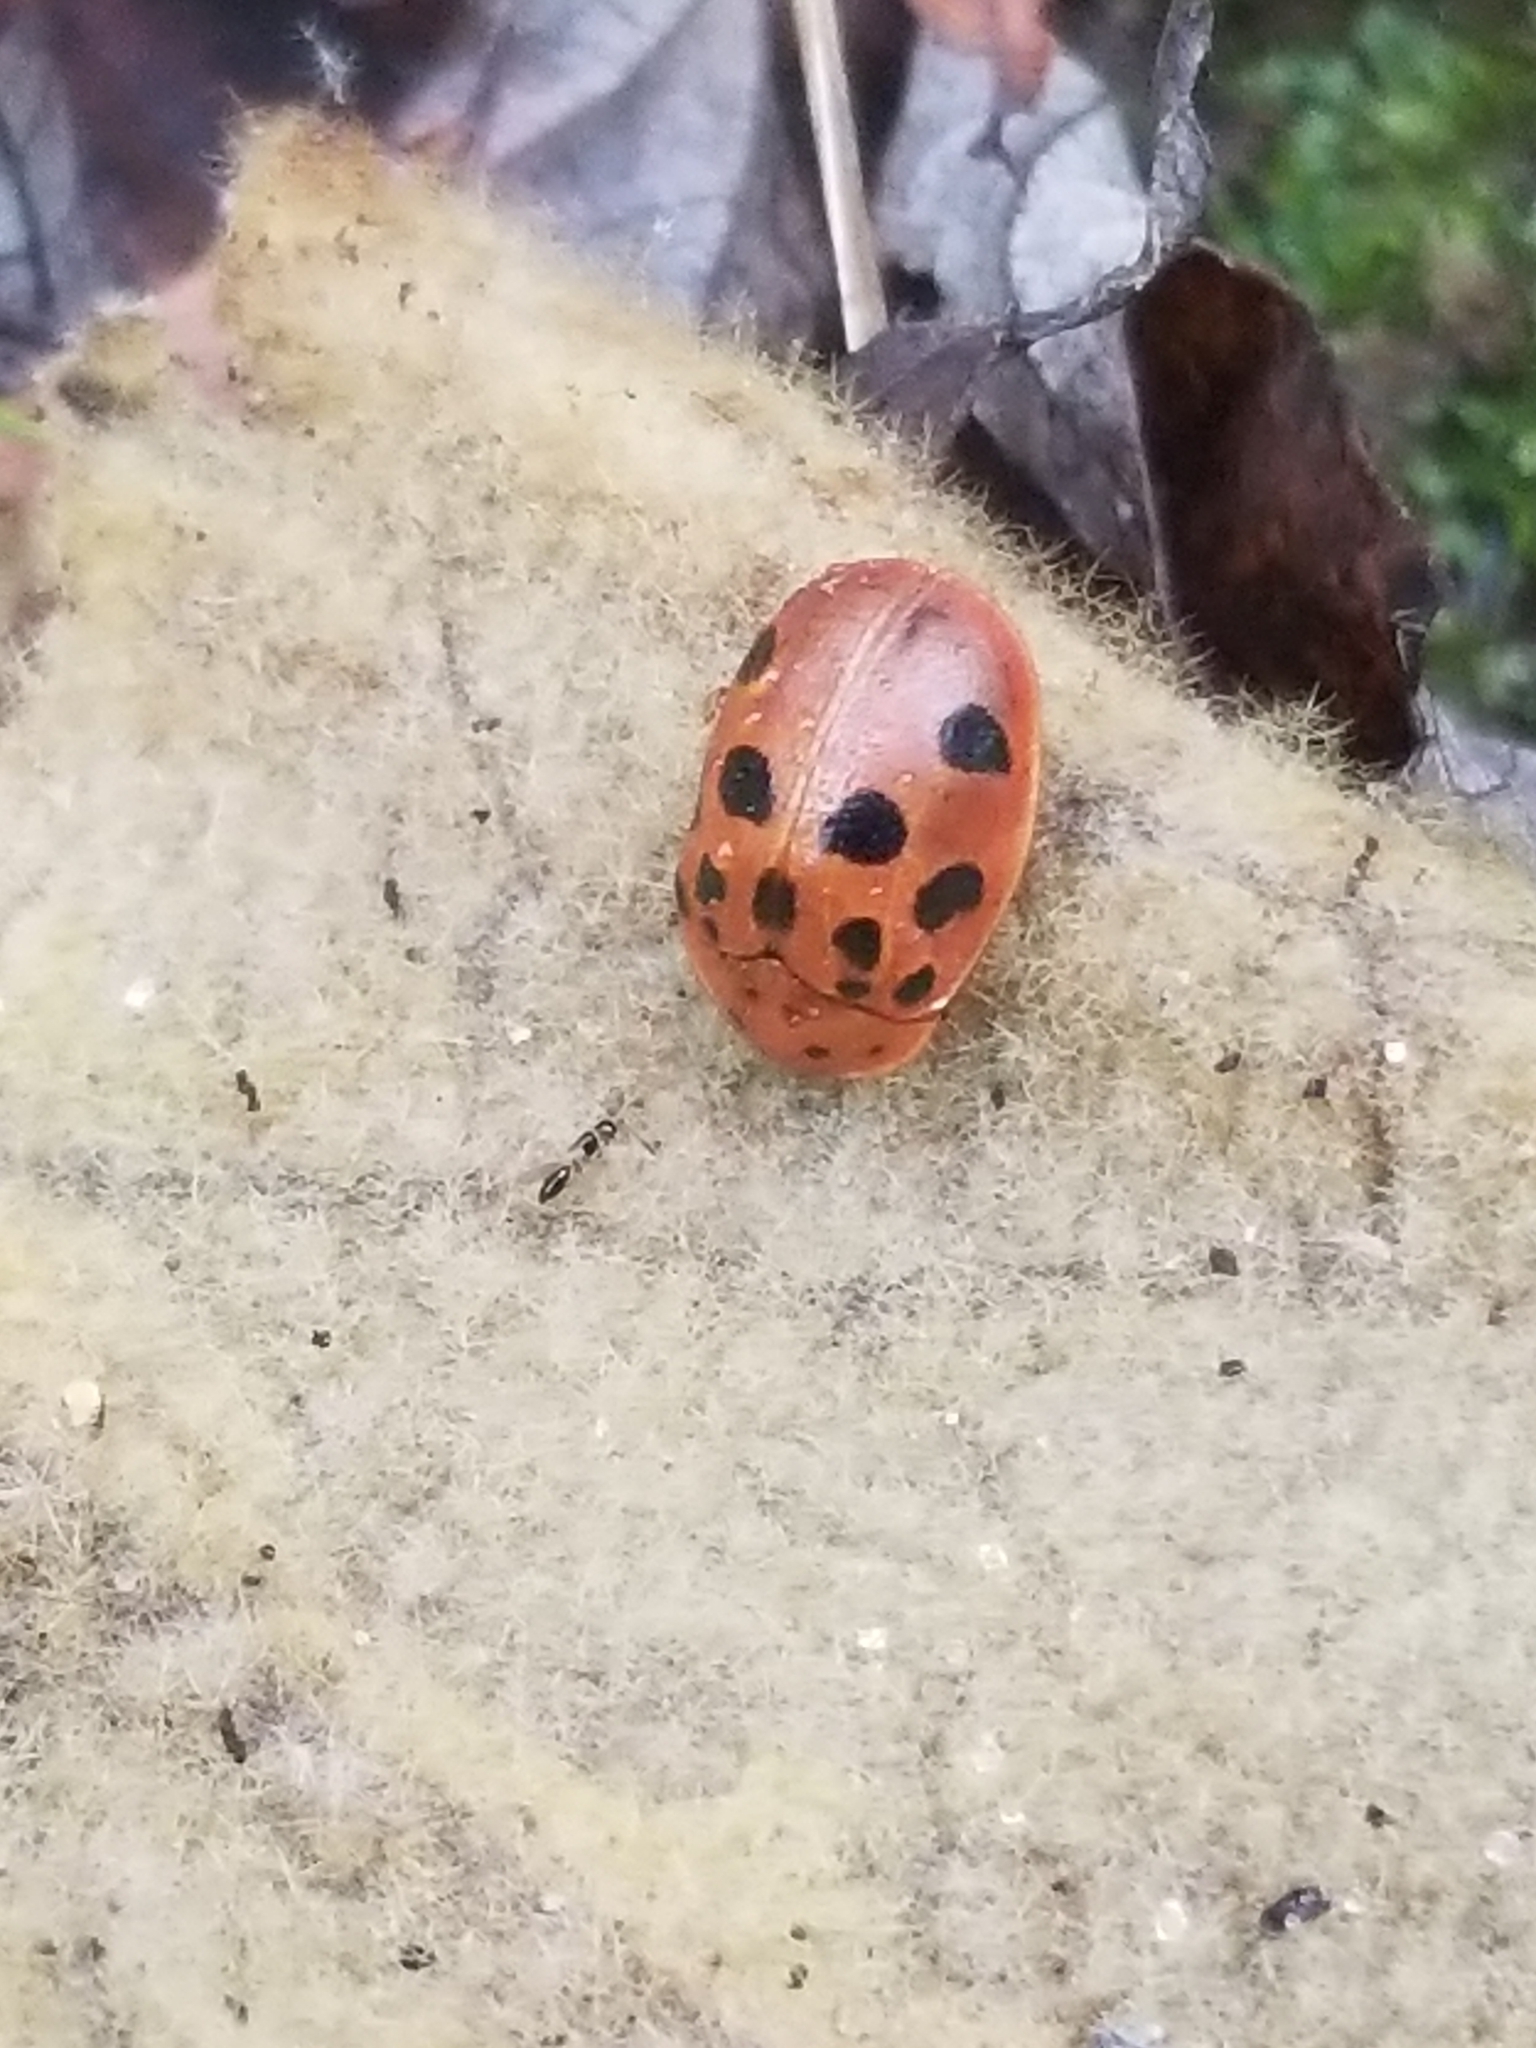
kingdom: Animalia
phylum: Arthropoda
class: Insecta
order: Coleoptera
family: Chrysomelidae
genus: Chelymorpha
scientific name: Chelymorpha cassidea
